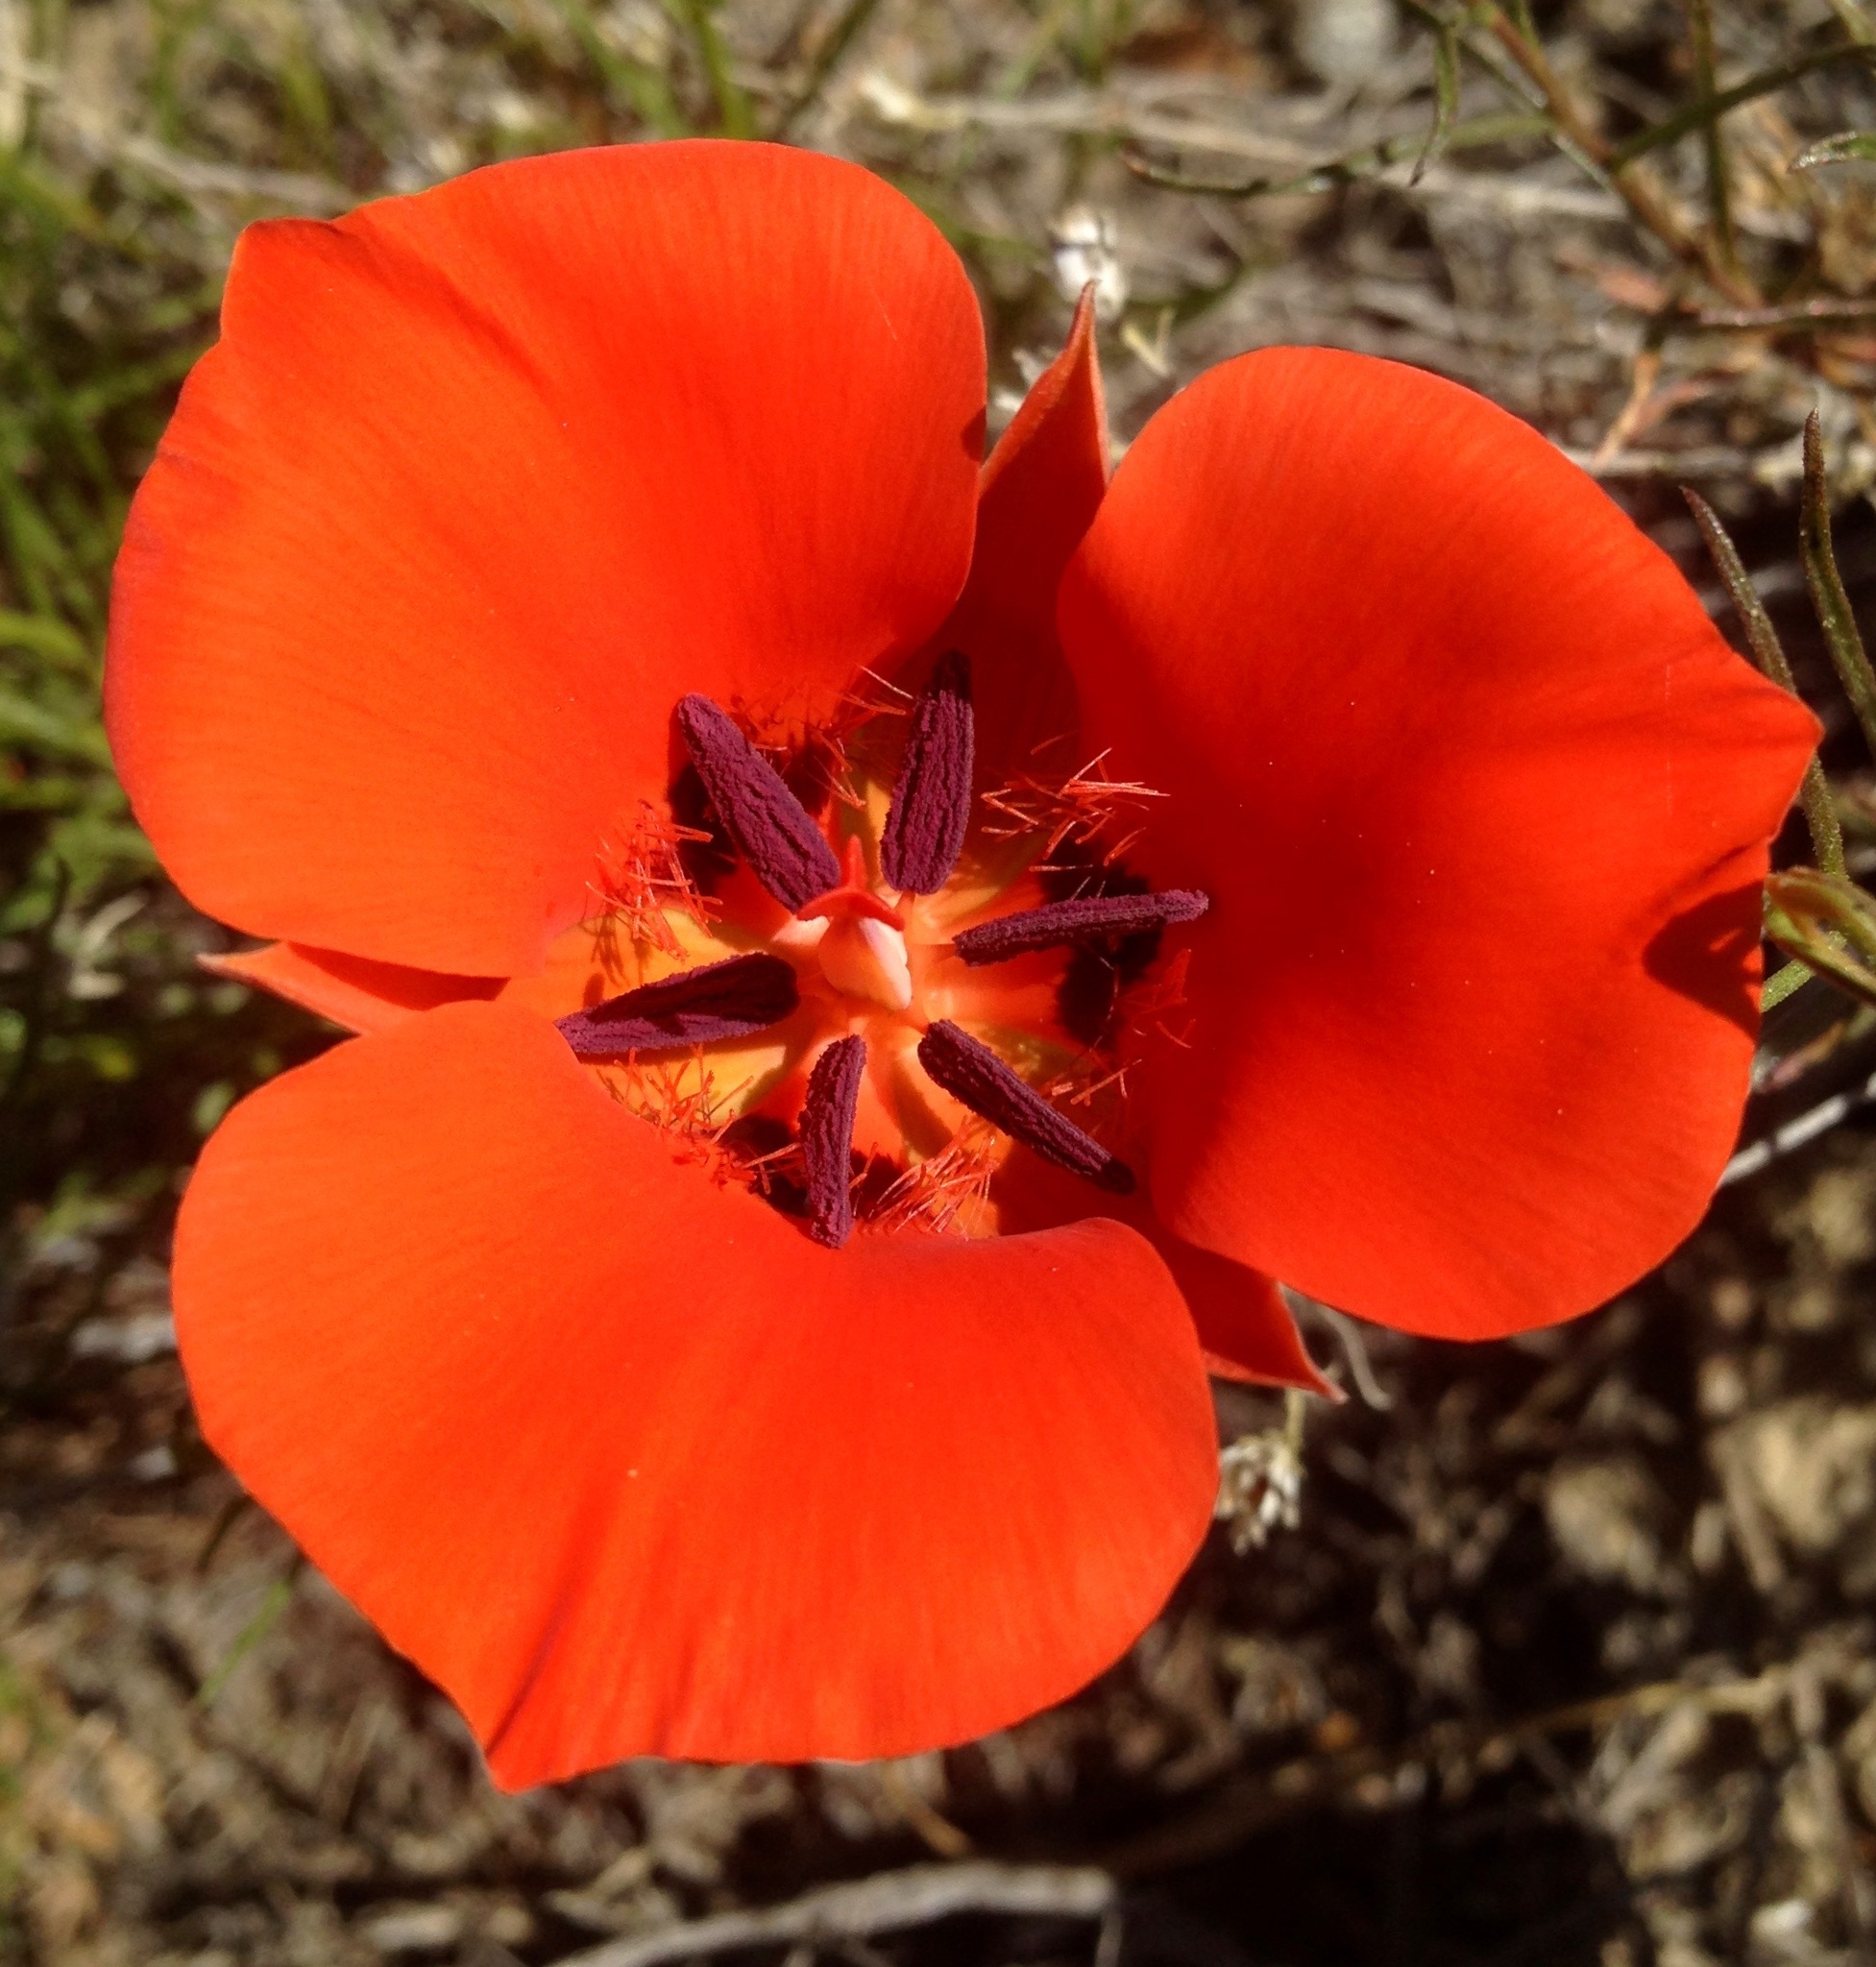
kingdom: Plantae
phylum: Tracheophyta
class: Liliopsida
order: Liliales
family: Liliaceae
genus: Calochortus
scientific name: Calochortus kennedyi
